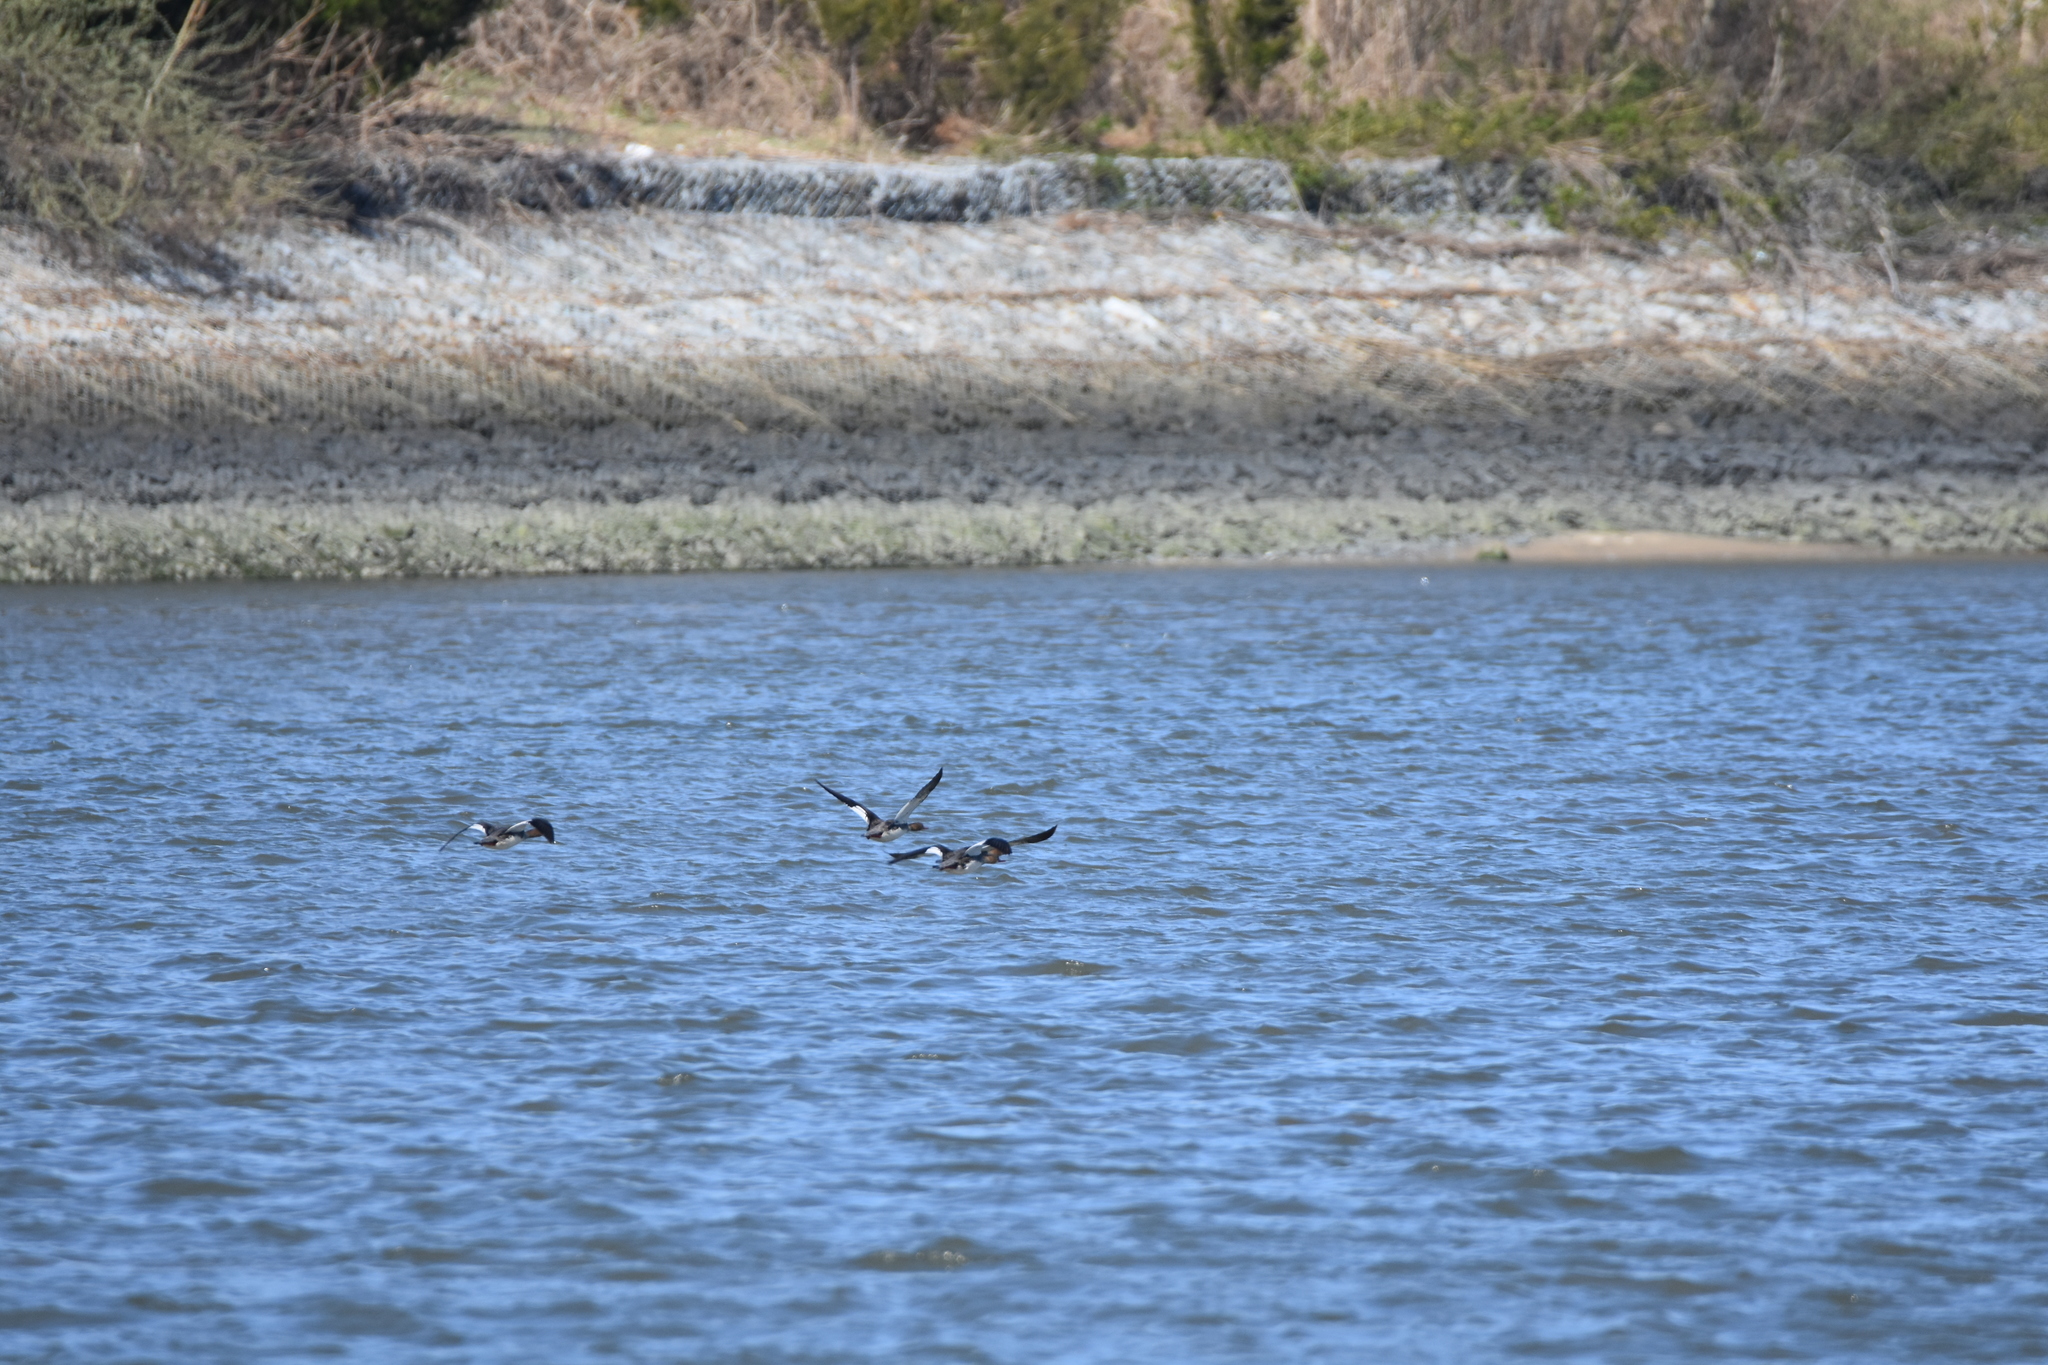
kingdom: Animalia
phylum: Chordata
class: Aves
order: Anseriformes
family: Anatidae
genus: Mergus
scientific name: Mergus serrator
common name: Red-breasted merganser
